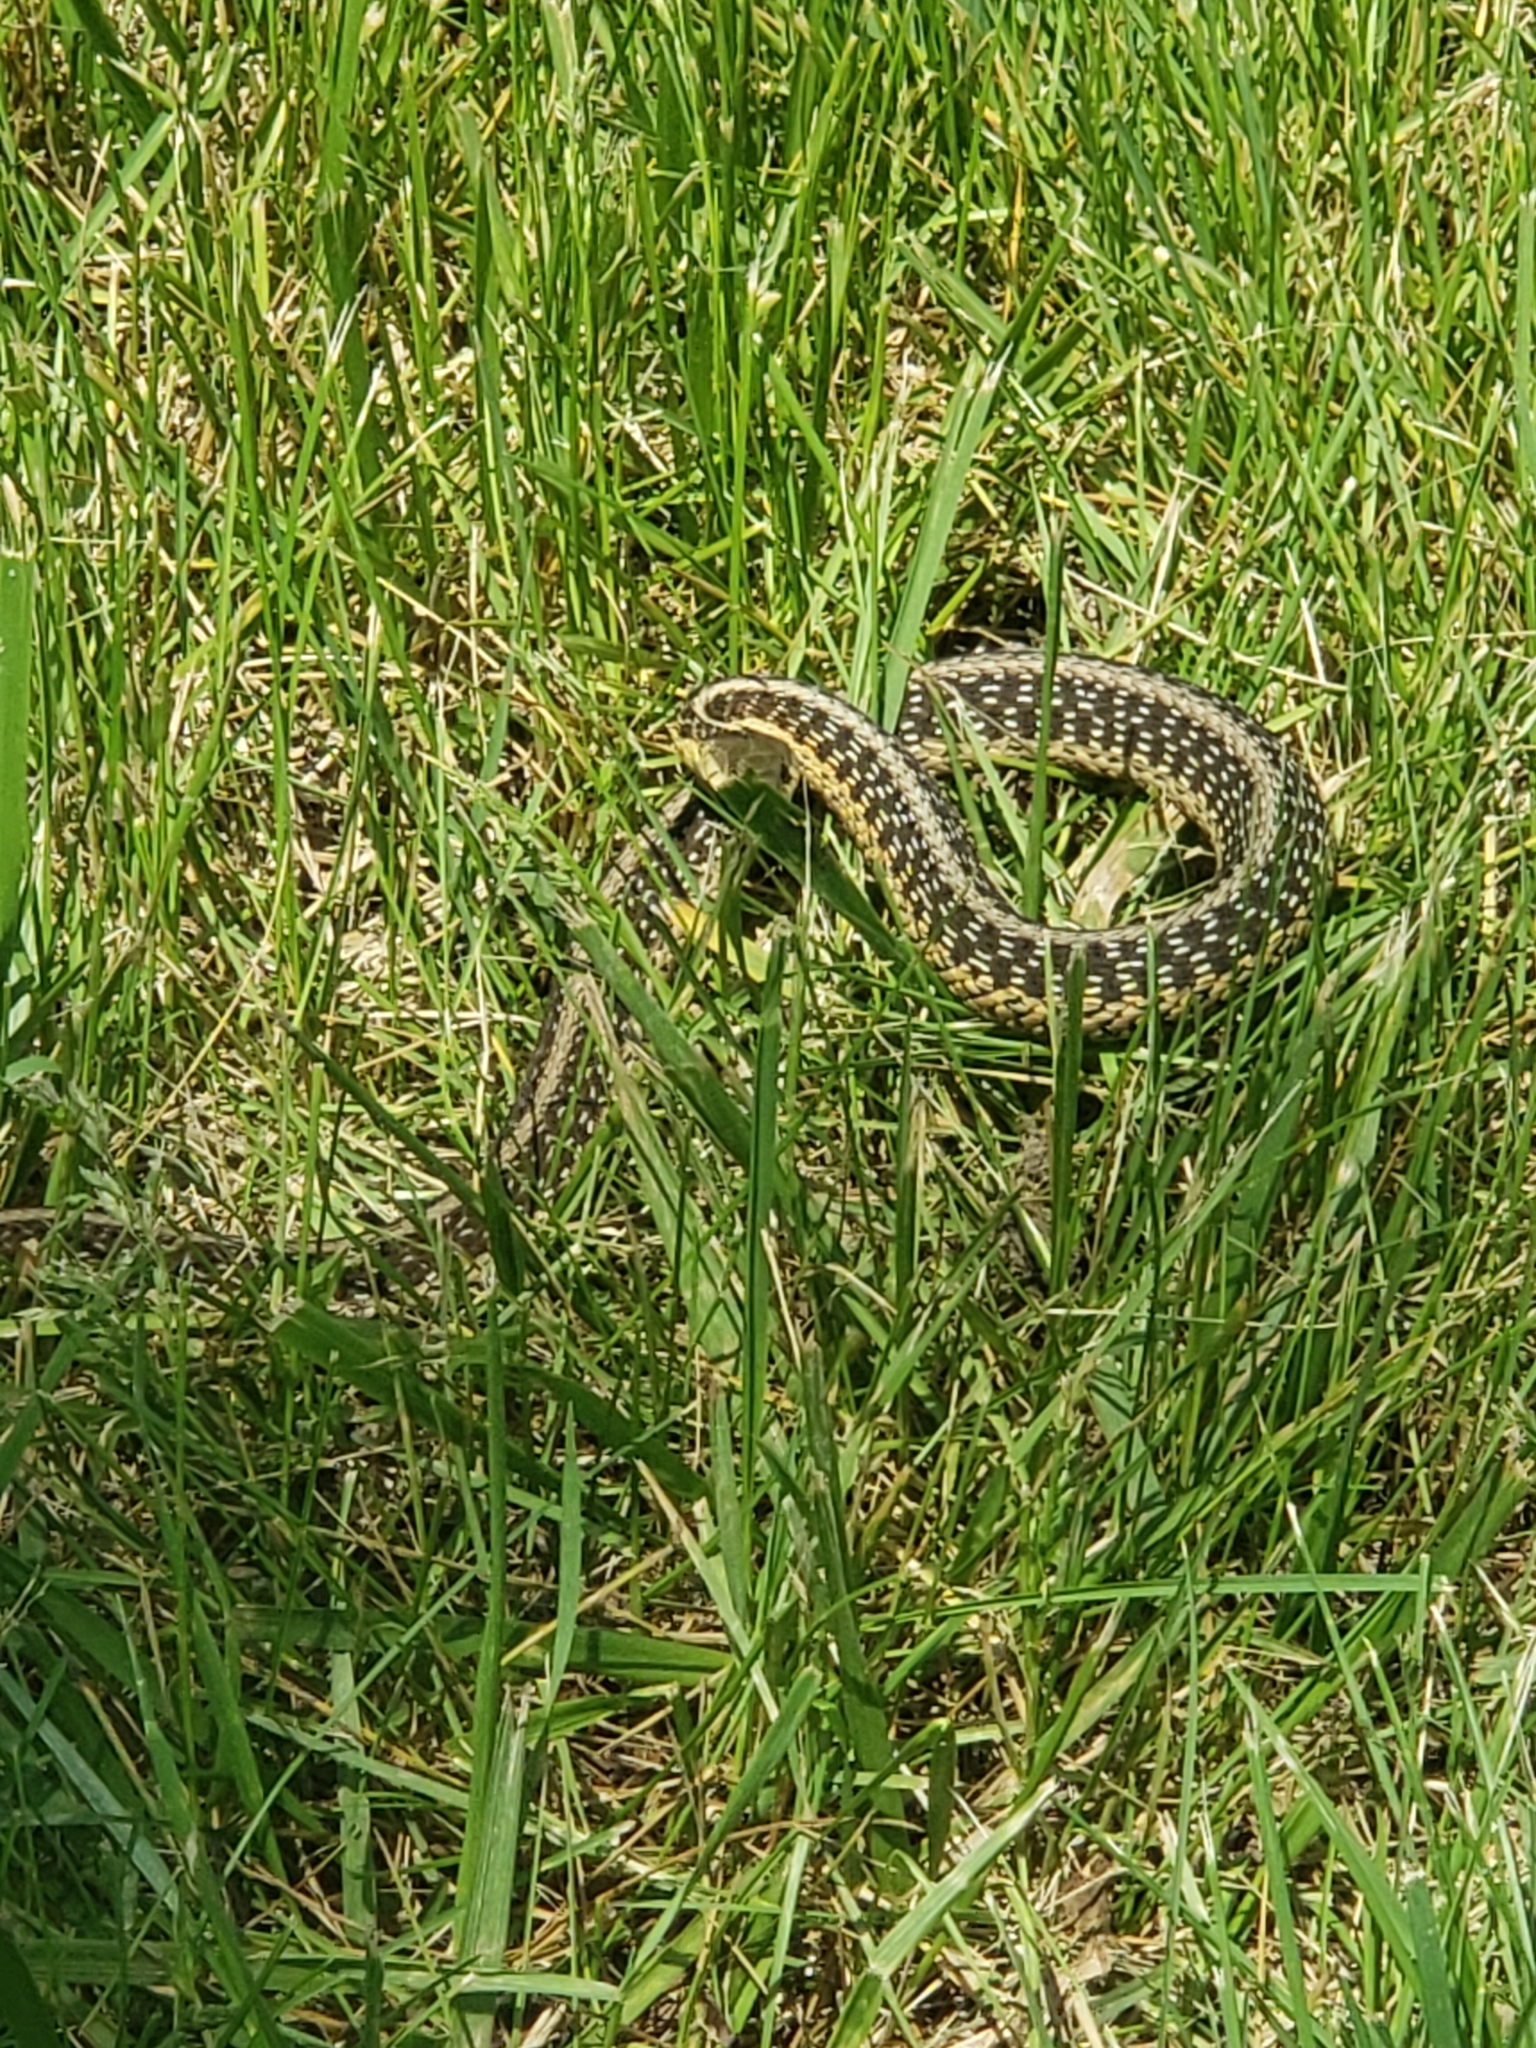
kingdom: Animalia
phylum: Chordata
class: Squamata
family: Colubridae
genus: Thamnophis
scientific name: Thamnophis sirtalis
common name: Common garter snake
